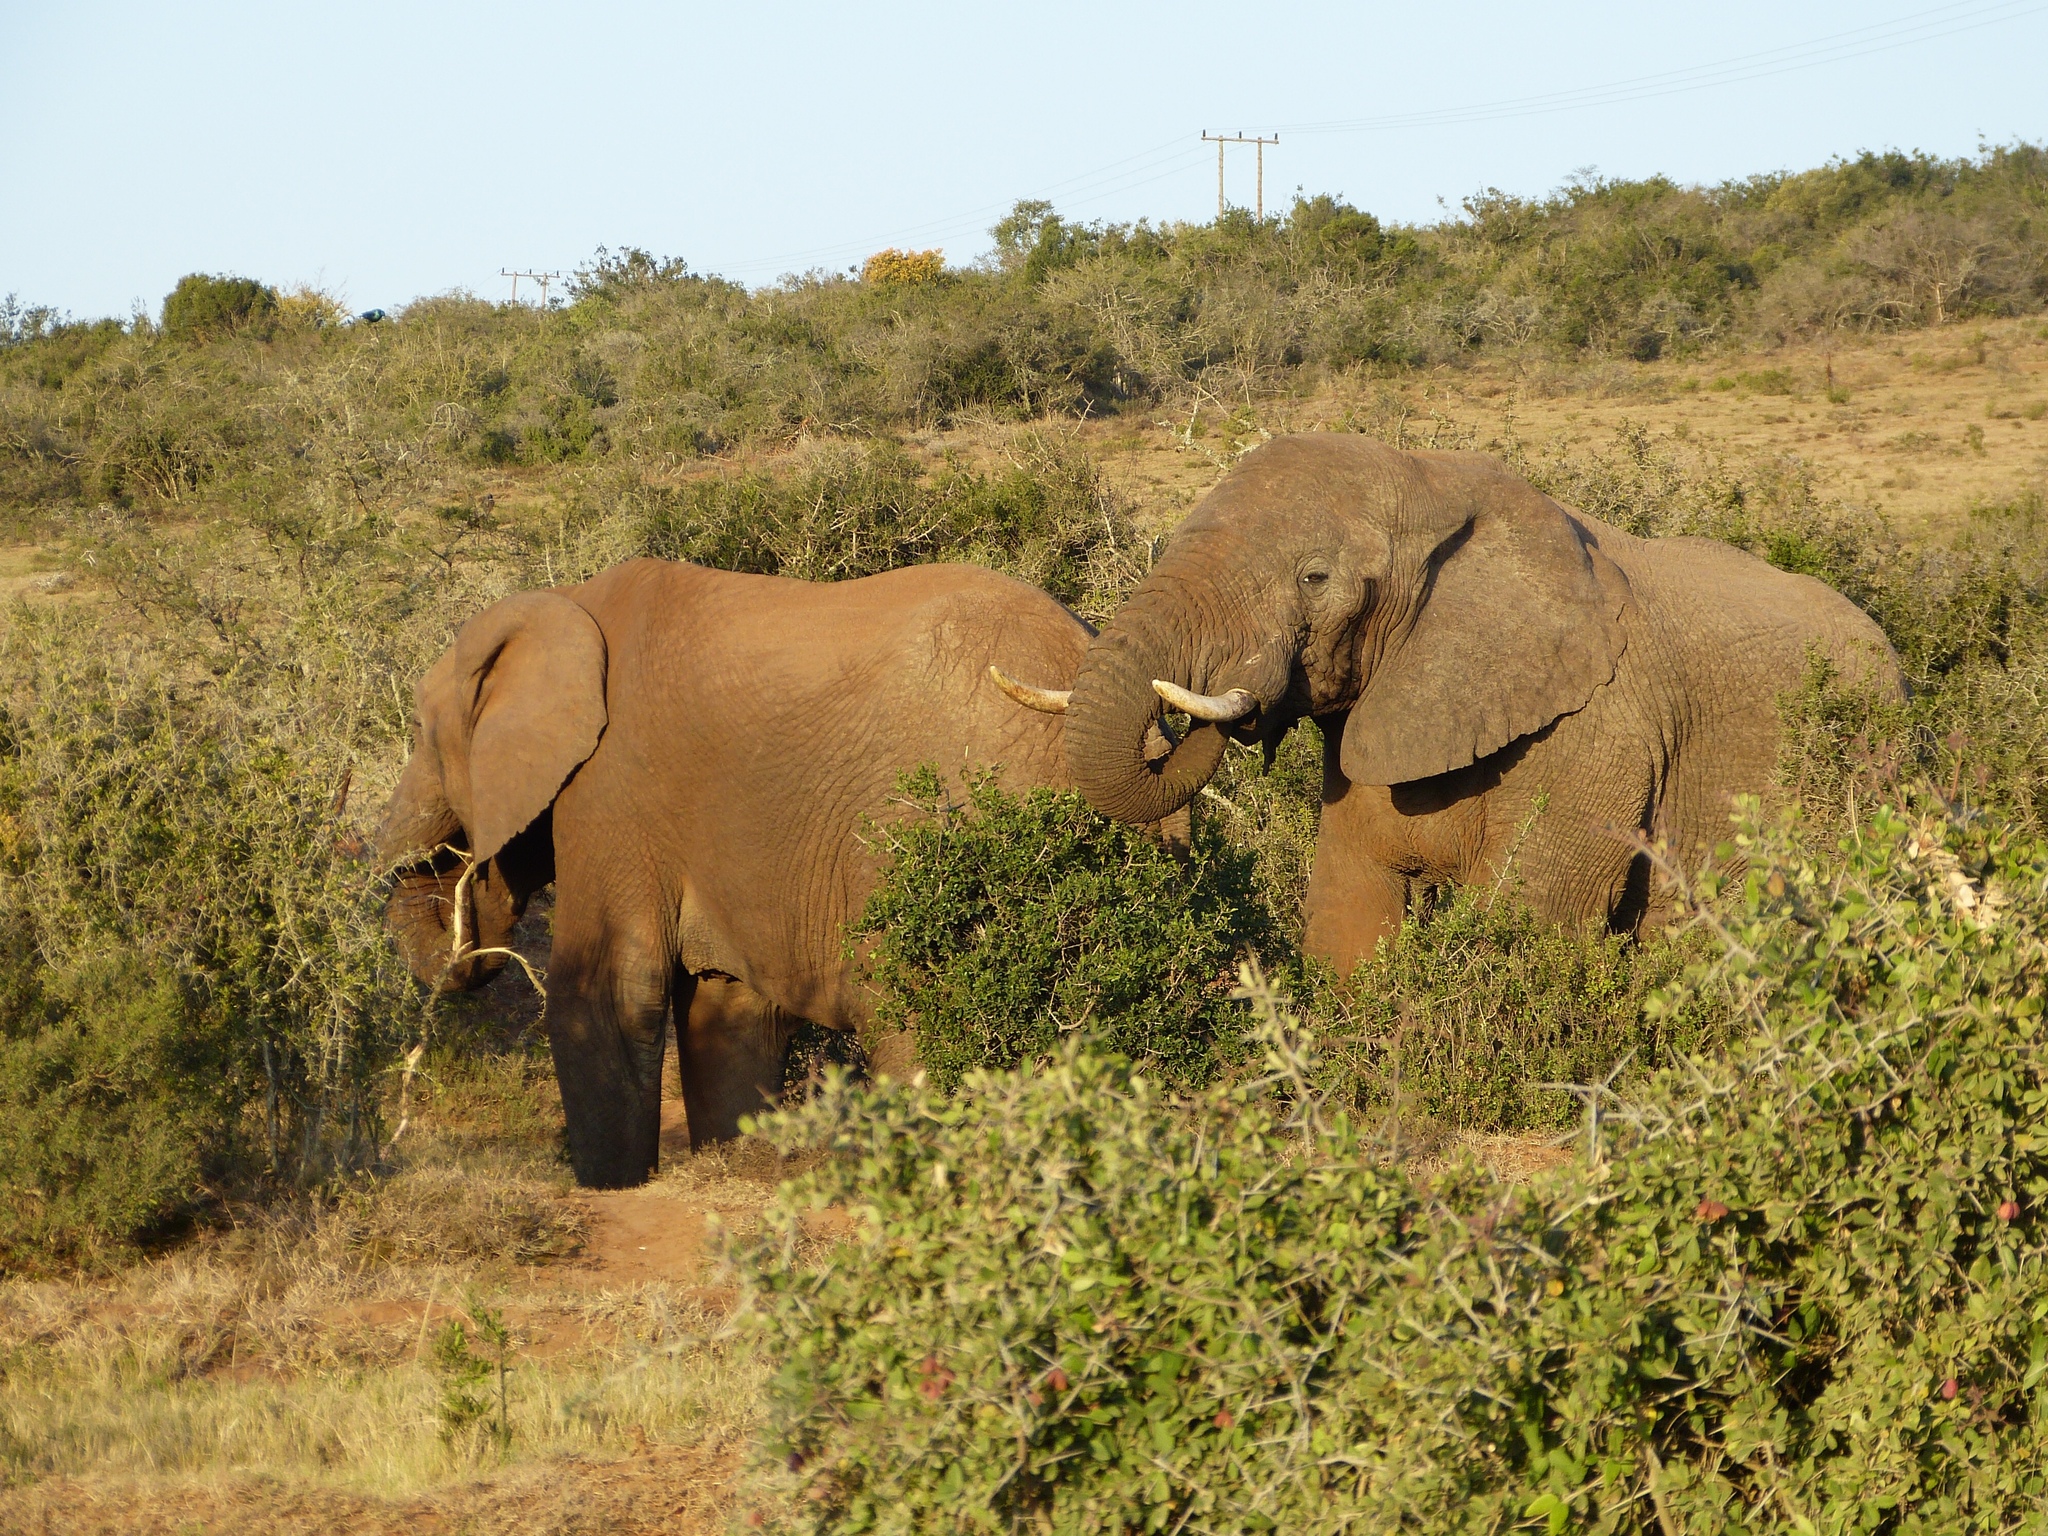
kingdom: Animalia
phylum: Chordata
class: Mammalia
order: Proboscidea
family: Elephantidae
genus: Loxodonta
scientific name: Loxodonta africana
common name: African elephant
